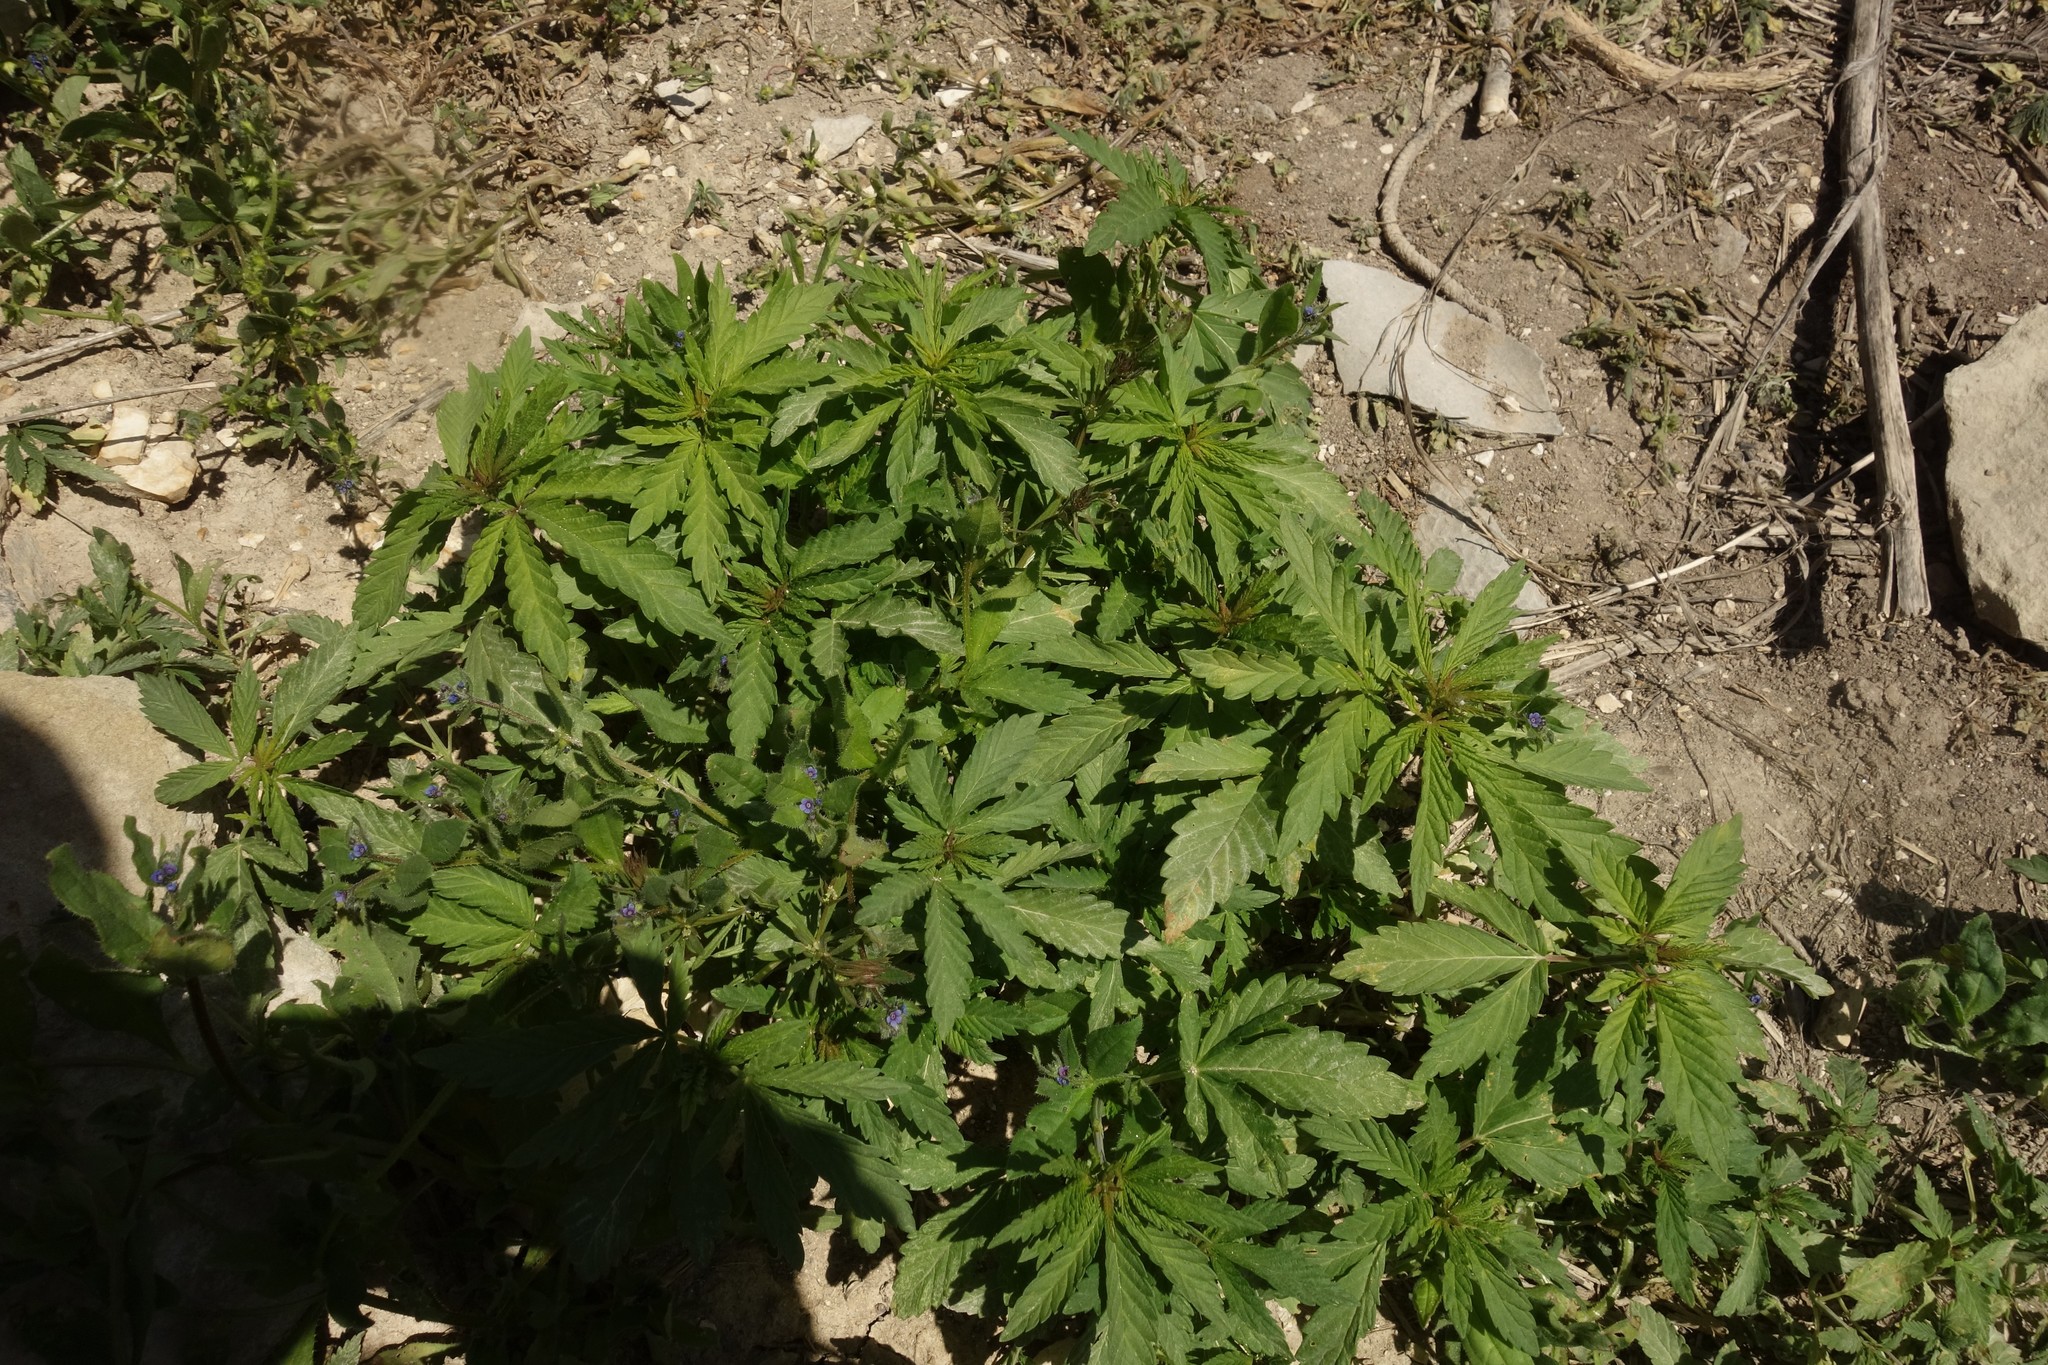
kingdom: Plantae
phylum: Tracheophyta
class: Magnoliopsida
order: Rosales
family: Cannabaceae
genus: Cannabis
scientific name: Cannabis sativa
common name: Hemp
